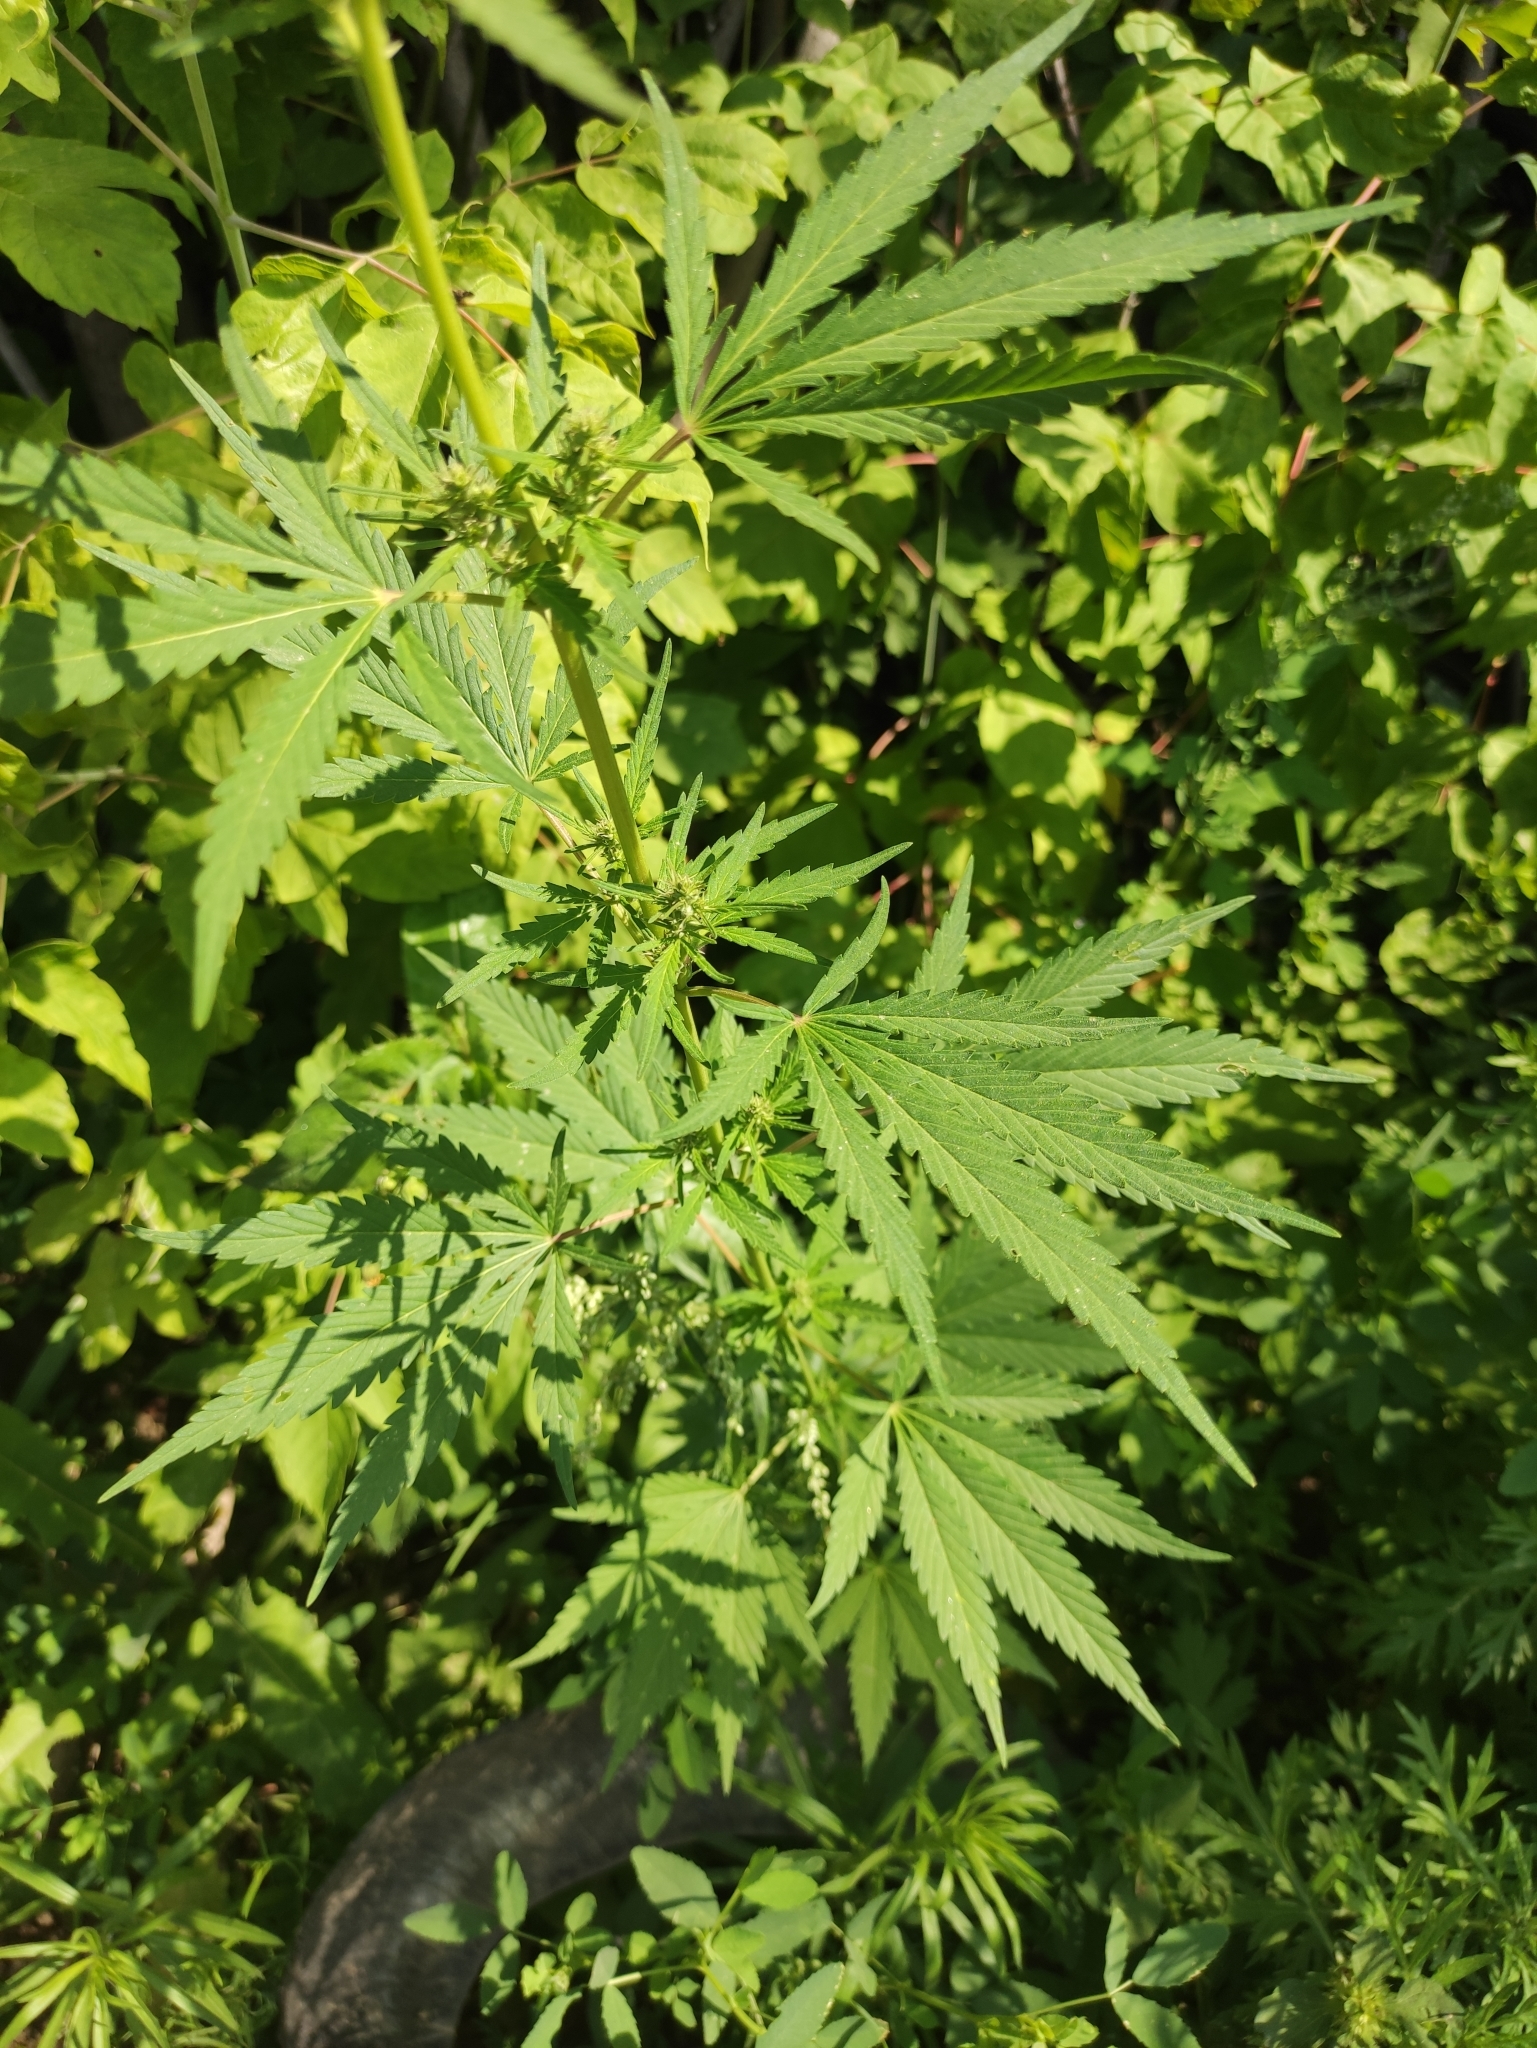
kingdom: Plantae
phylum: Tracheophyta
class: Magnoliopsida
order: Rosales
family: Cannabaceae
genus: Cannabis
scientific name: Cannabis sativa
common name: Hemp
